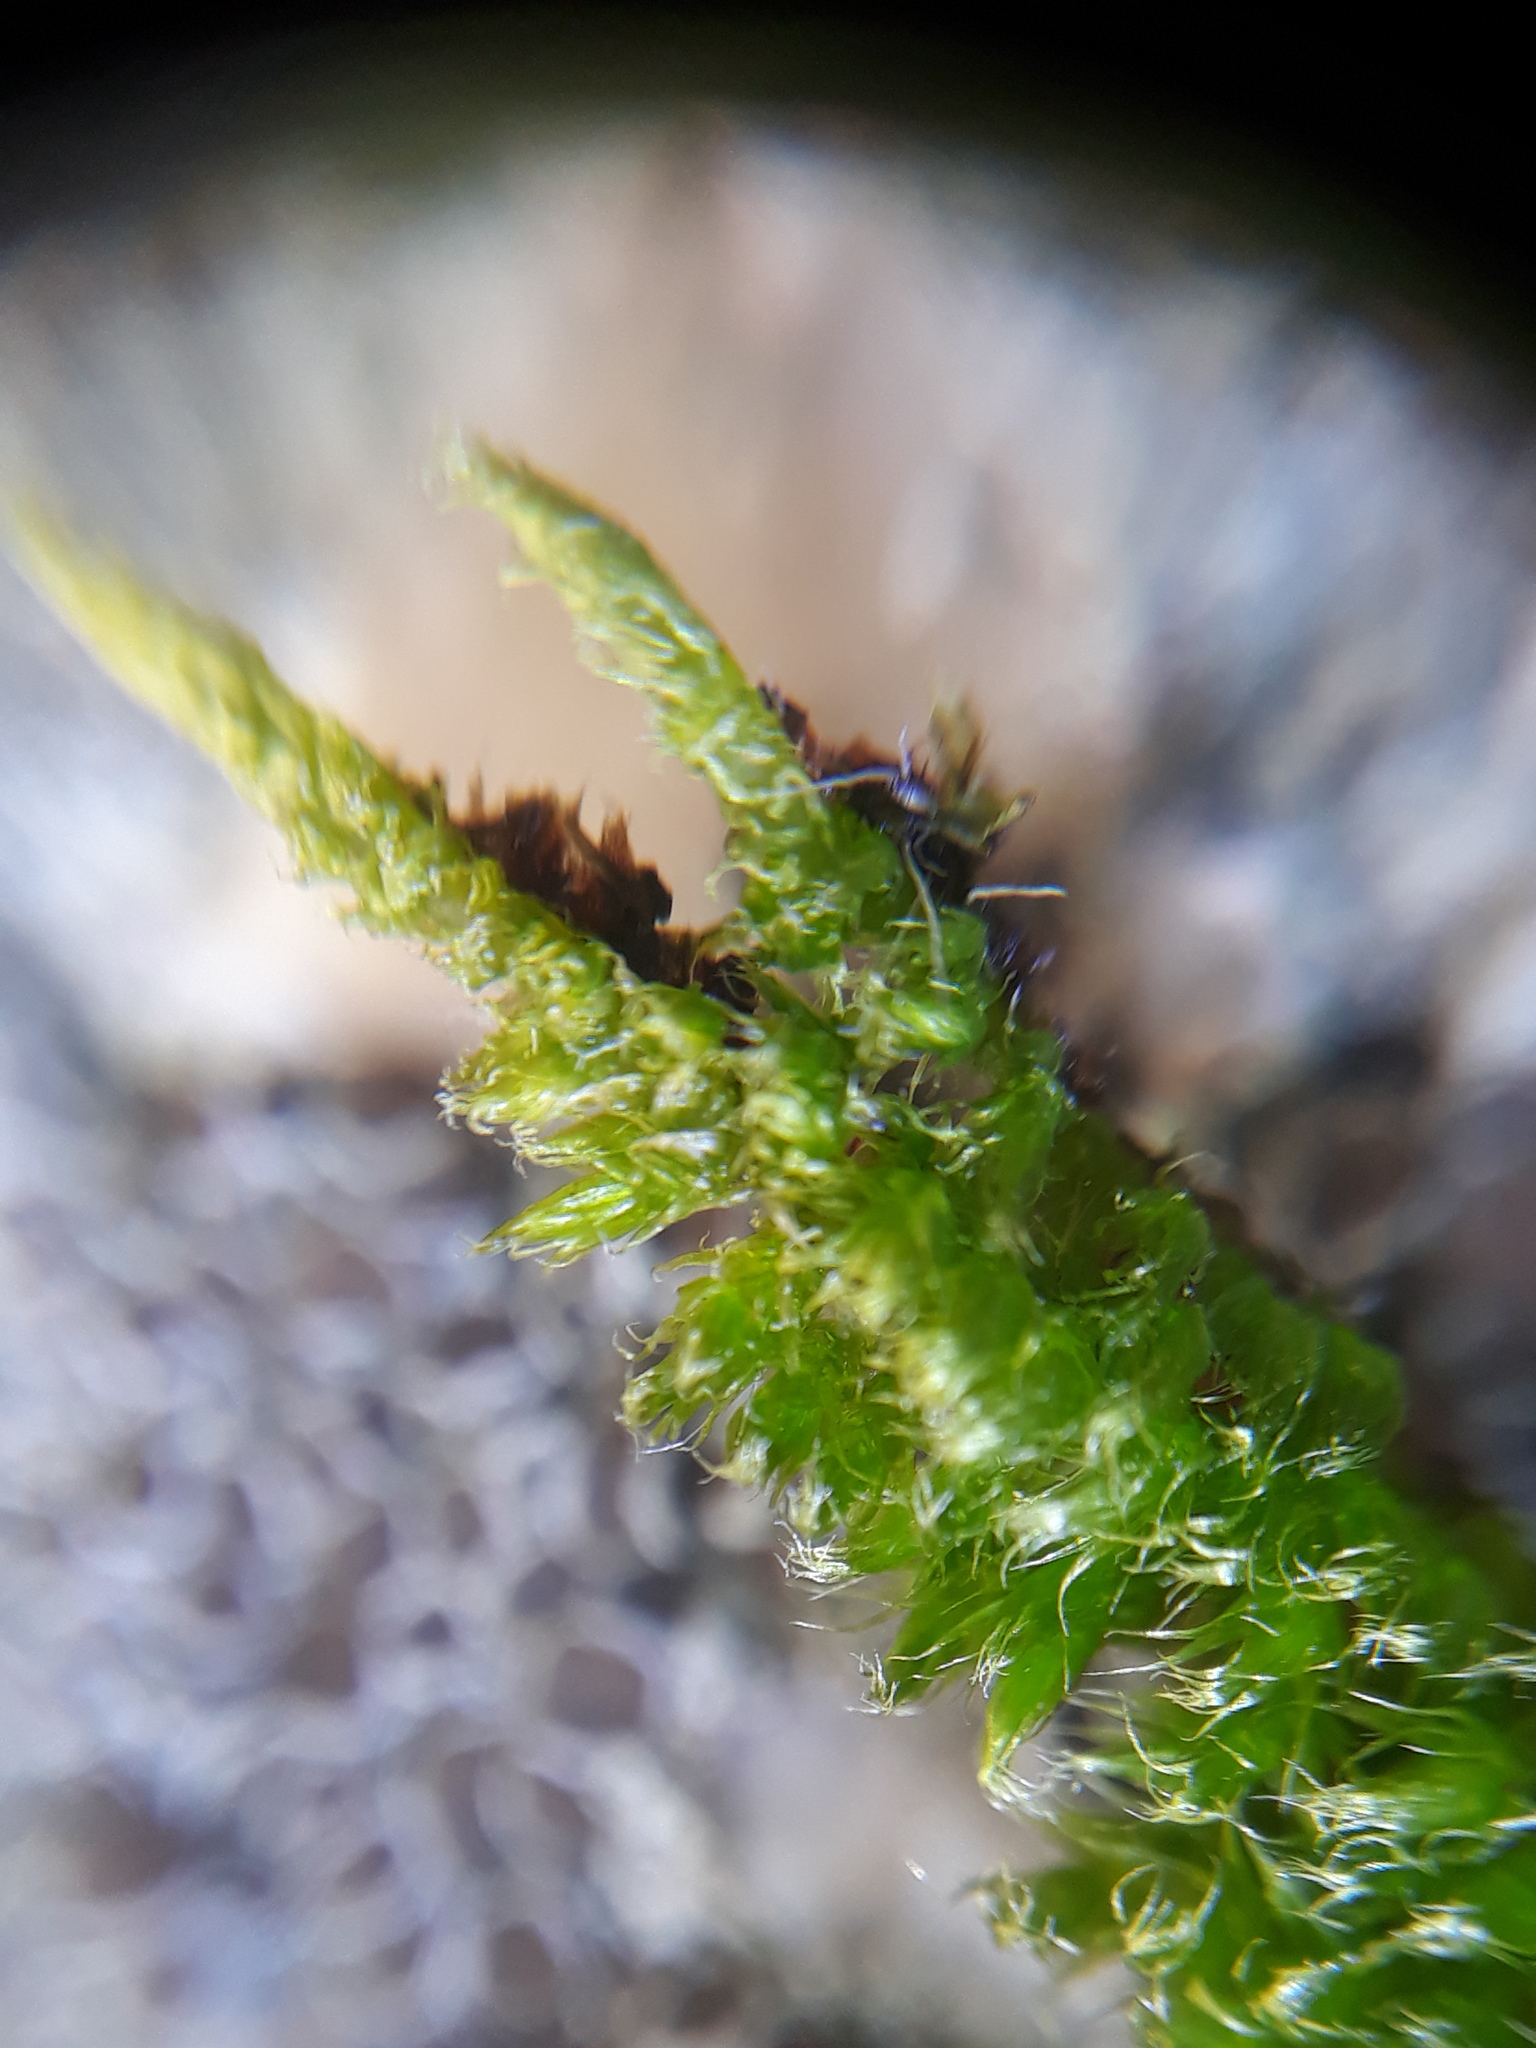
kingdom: Plantae
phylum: Bryophyta
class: Bryopsida
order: Hypnales
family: Brachytheciaceae
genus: Homalothecium
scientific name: Homalothecium sericeum
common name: Silky wall feather-moss
